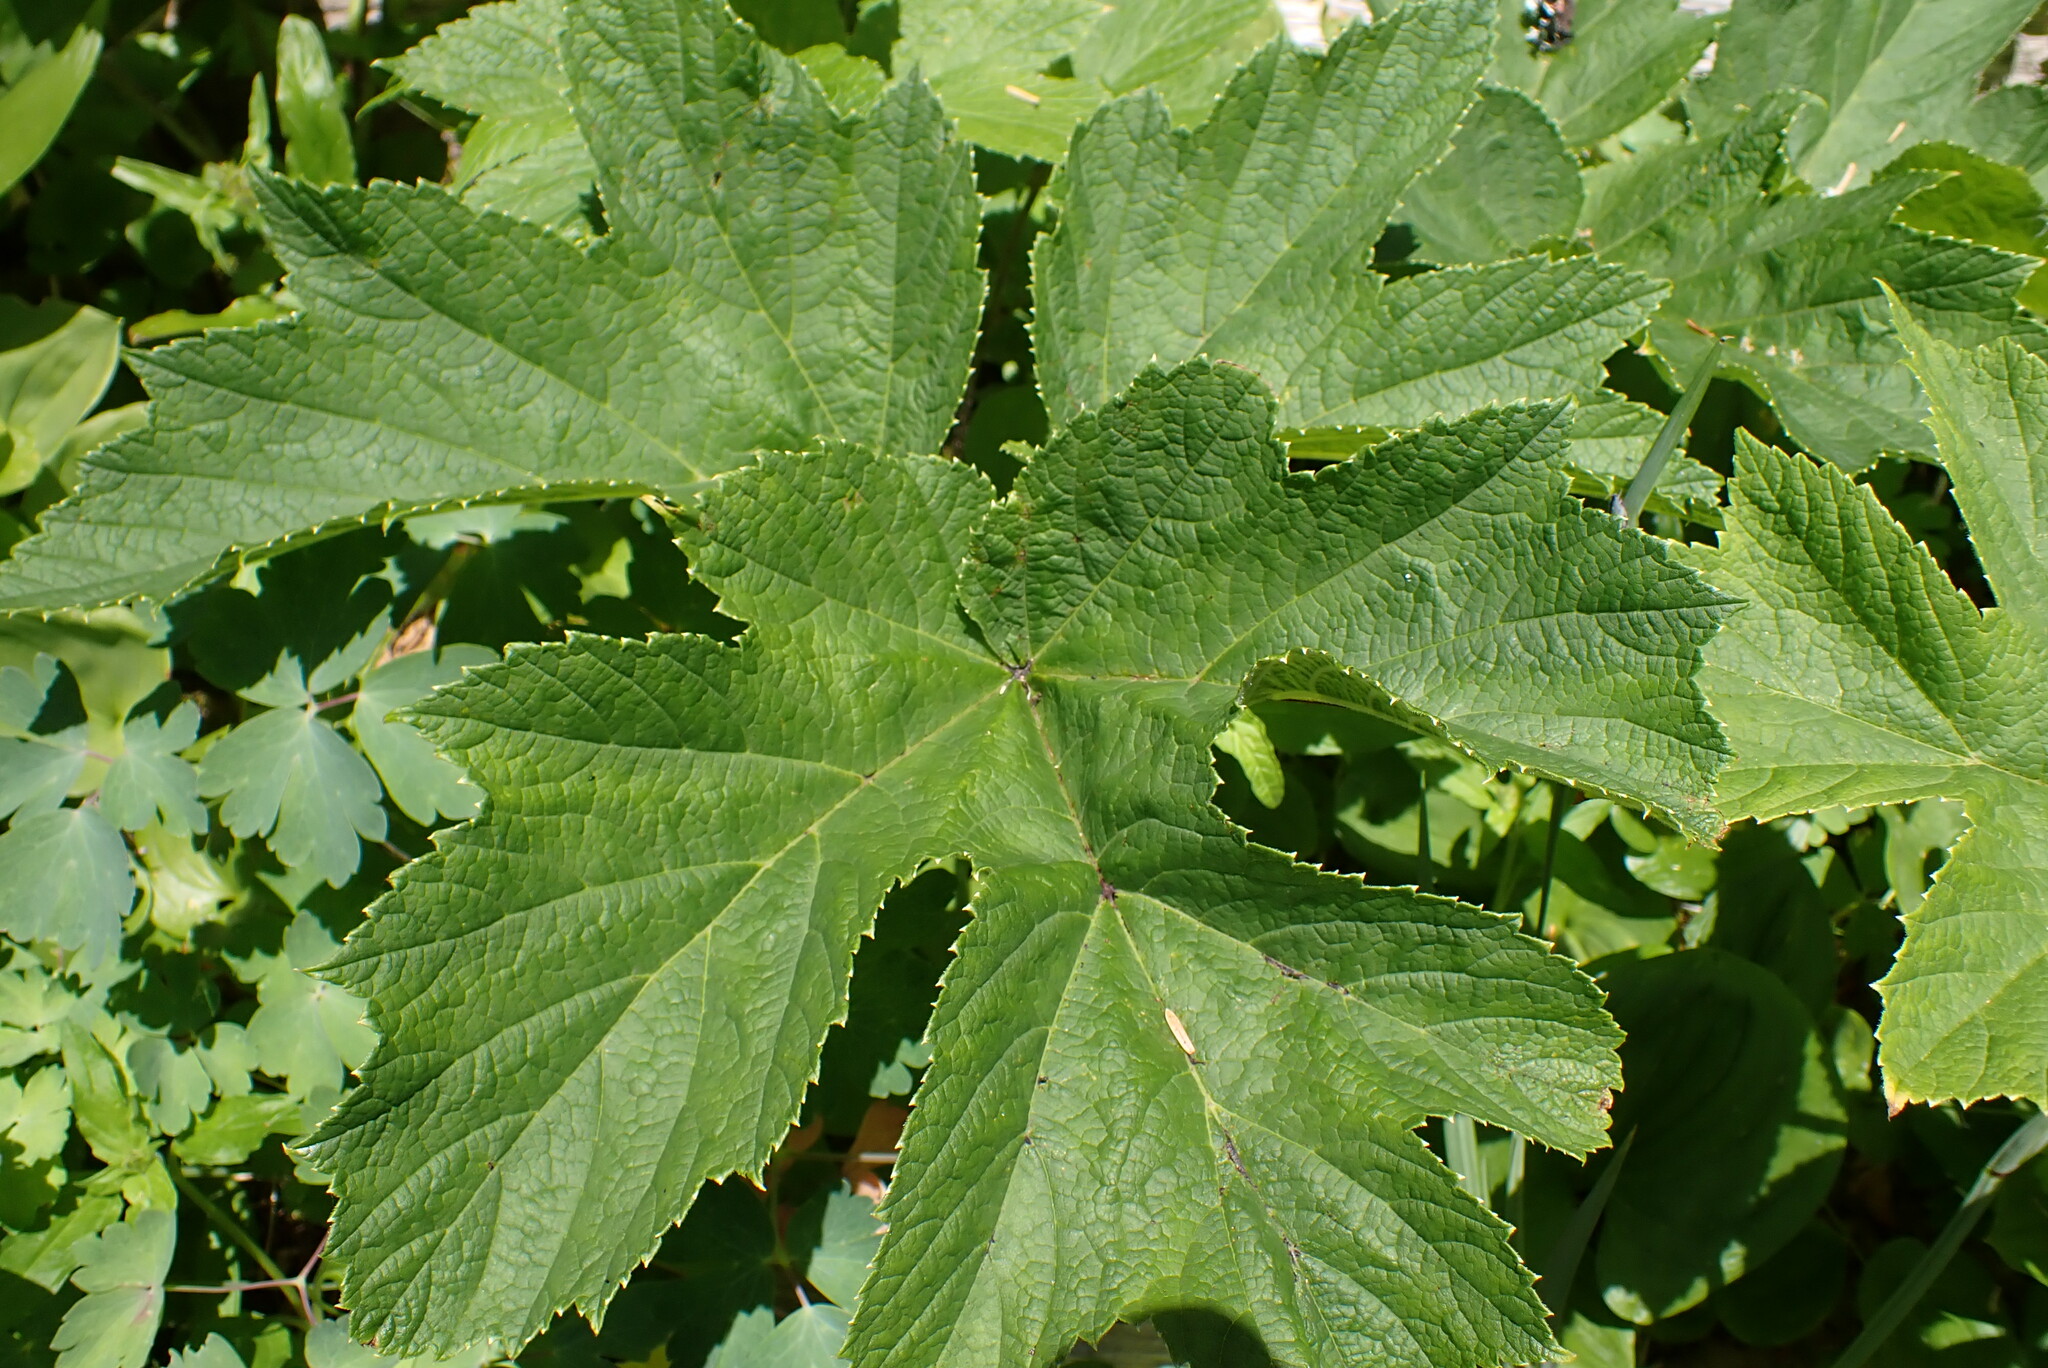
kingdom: Plantae
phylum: Tracheophyta
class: Magnoliopsida
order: Apiales
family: Apiaceae
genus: Heracleum
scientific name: Heracleum maximum
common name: American cow parsnip
